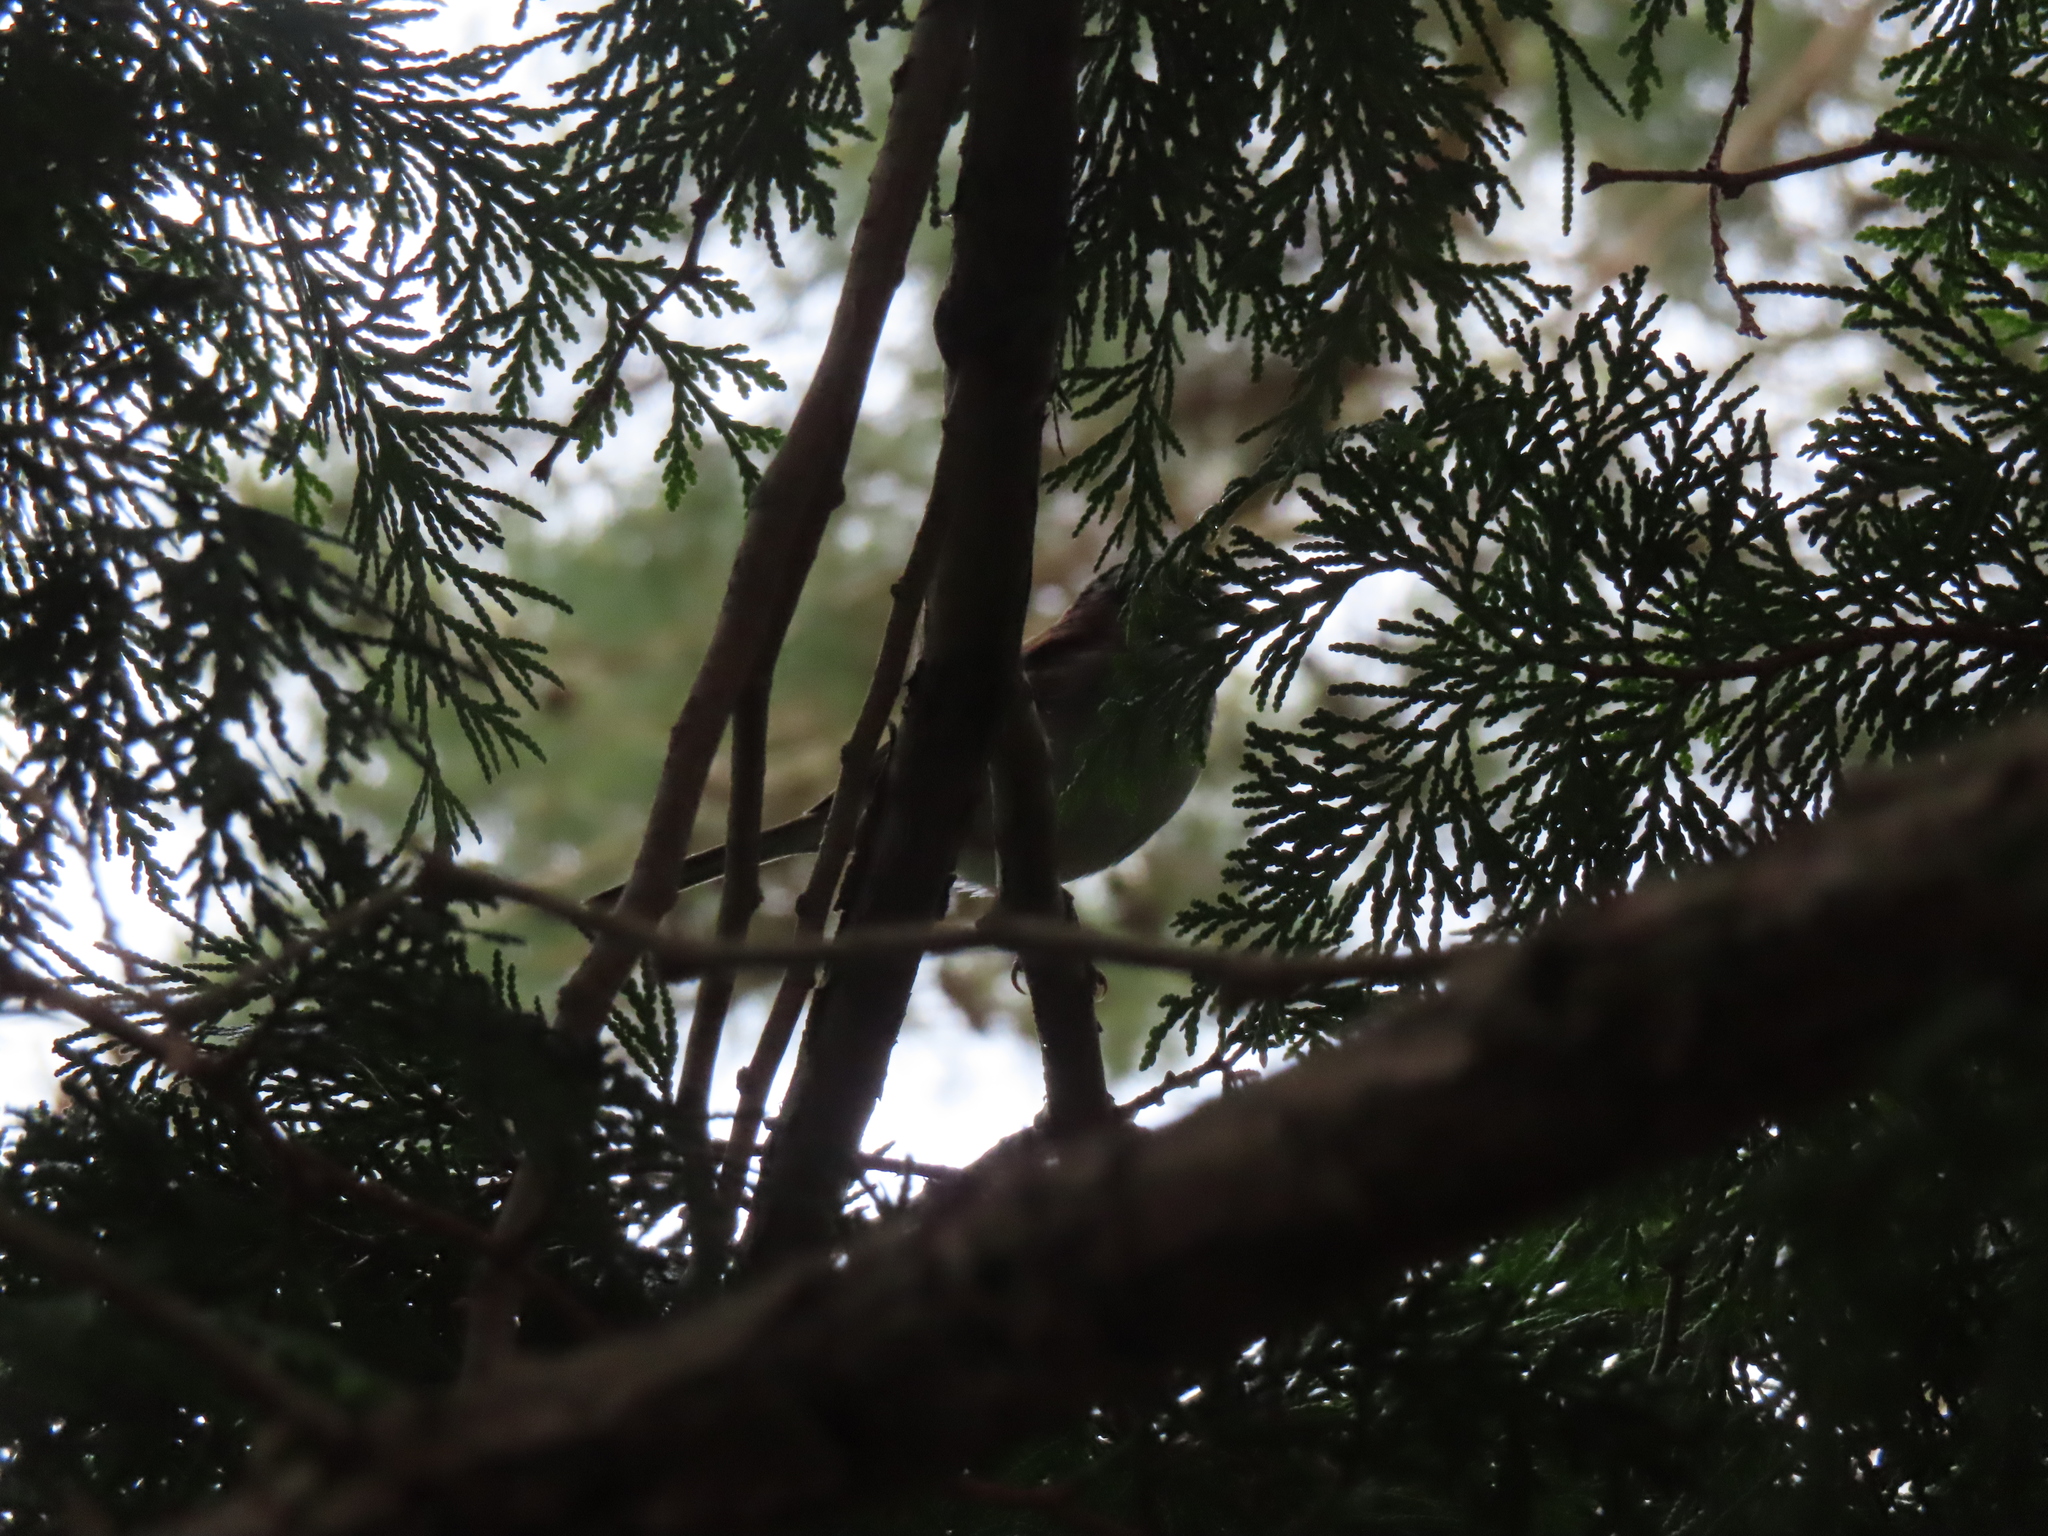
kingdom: Animalia
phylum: Chordata
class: Aves
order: Passeriformes
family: Passerellidae
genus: Zonotrichia
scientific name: Zonotrichia albicollis
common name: White-throated sparrow
